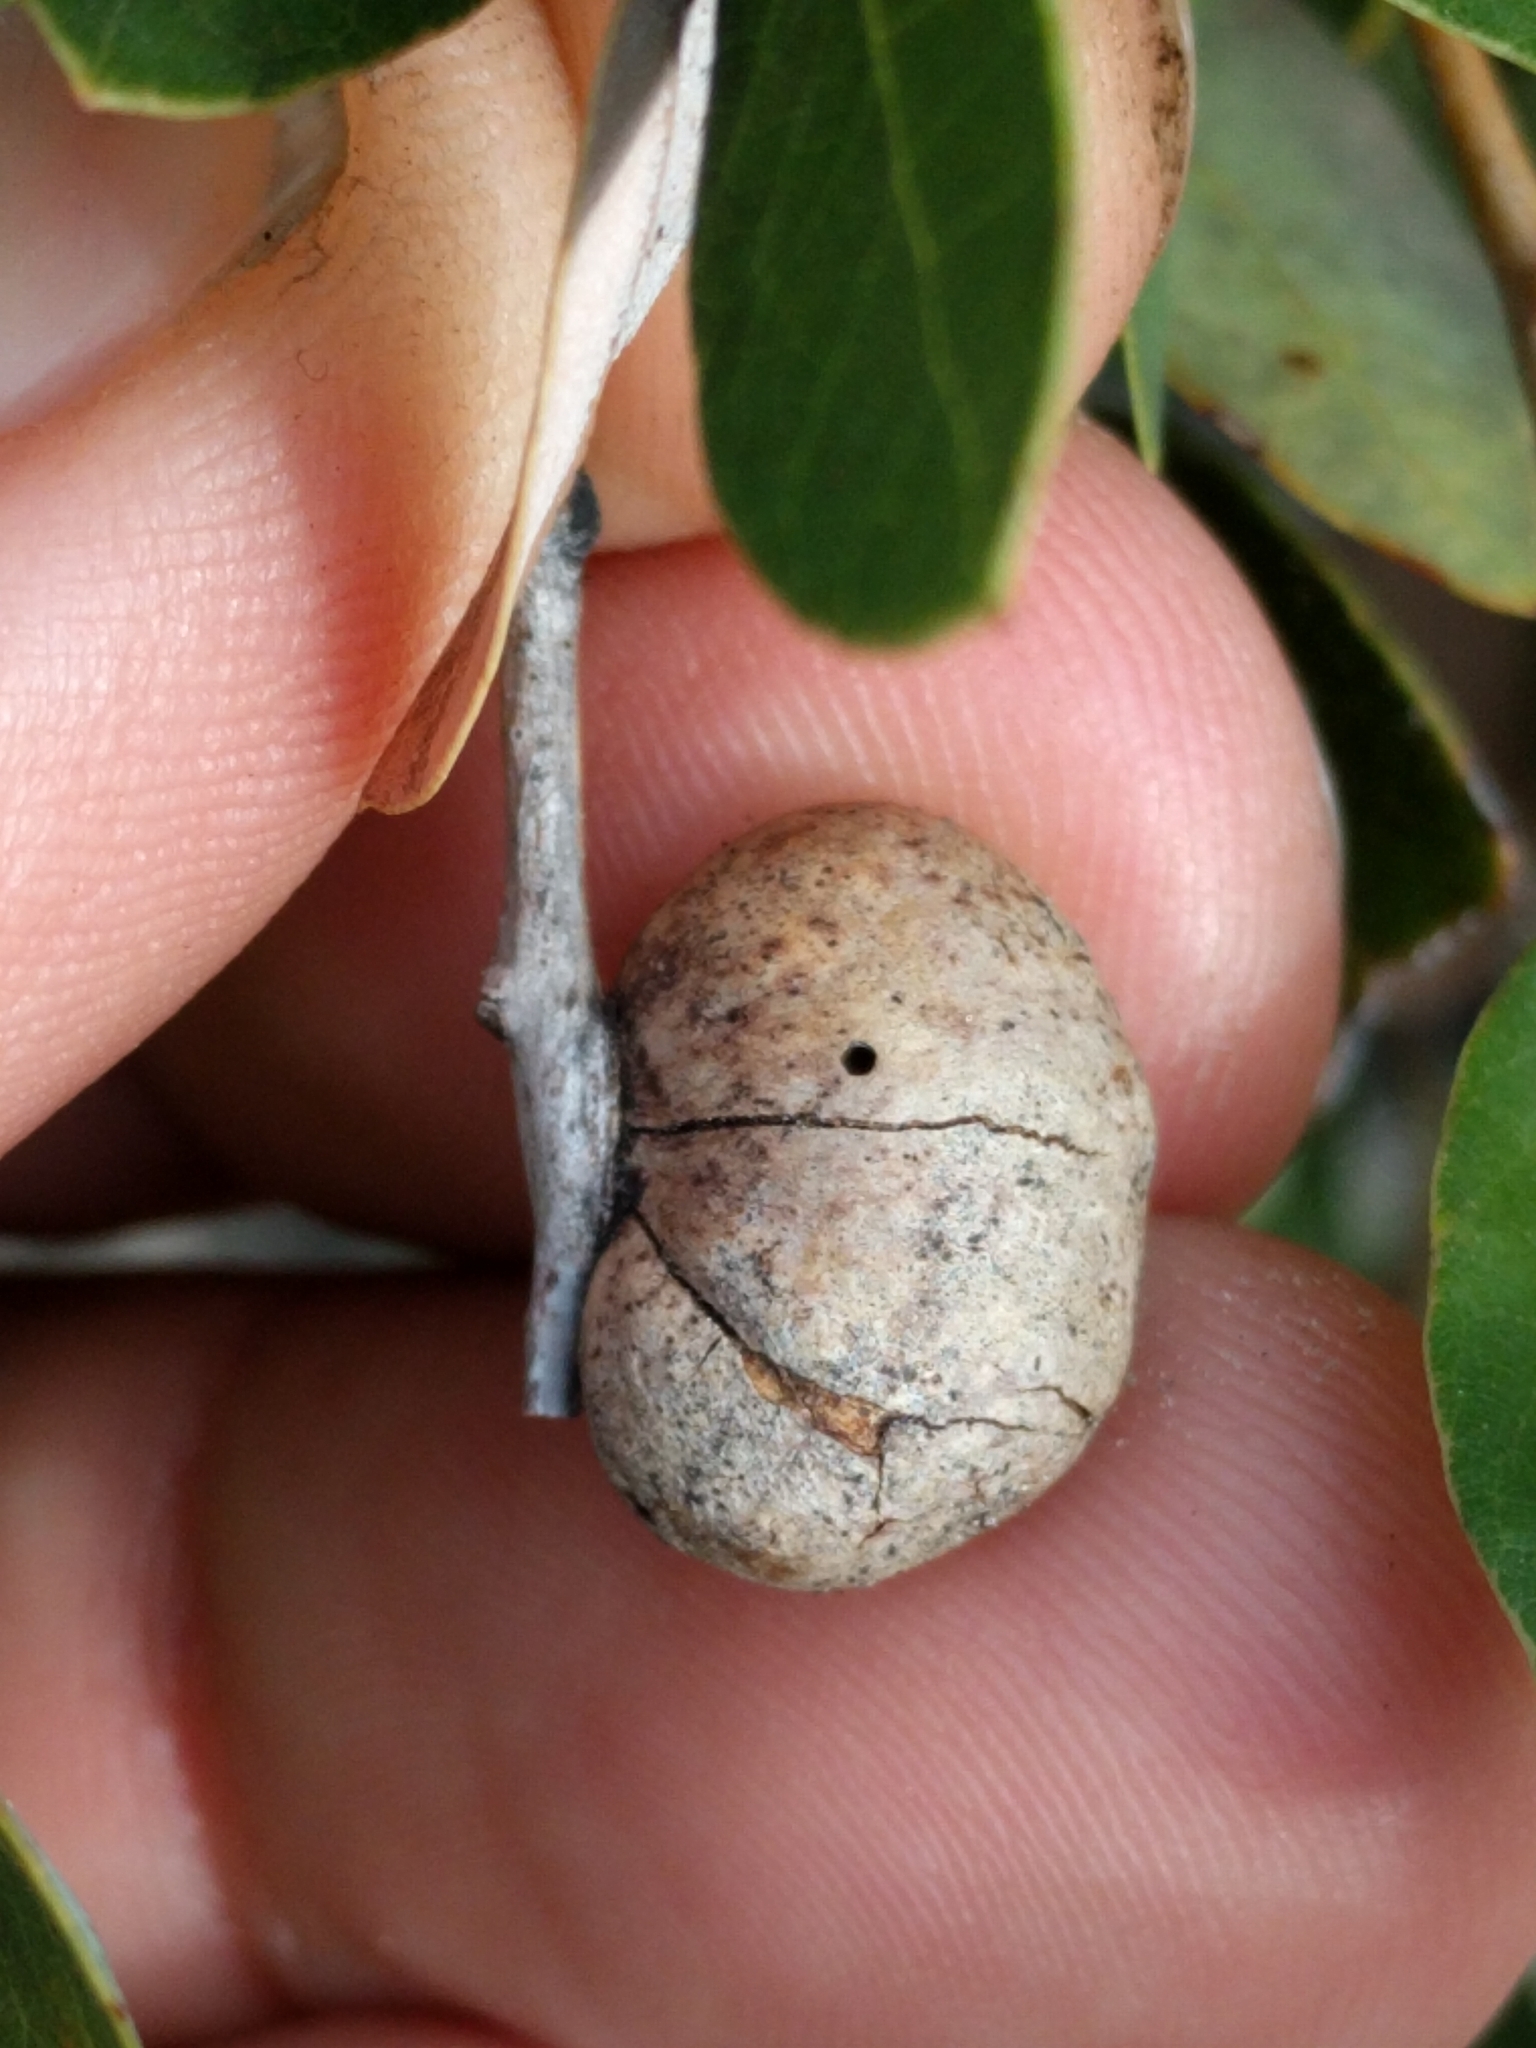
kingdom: Animalia
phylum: Arthropoda
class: Insecta
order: Hymenoptera
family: Cynipidae
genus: Disholandricus
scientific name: Disholandricus
